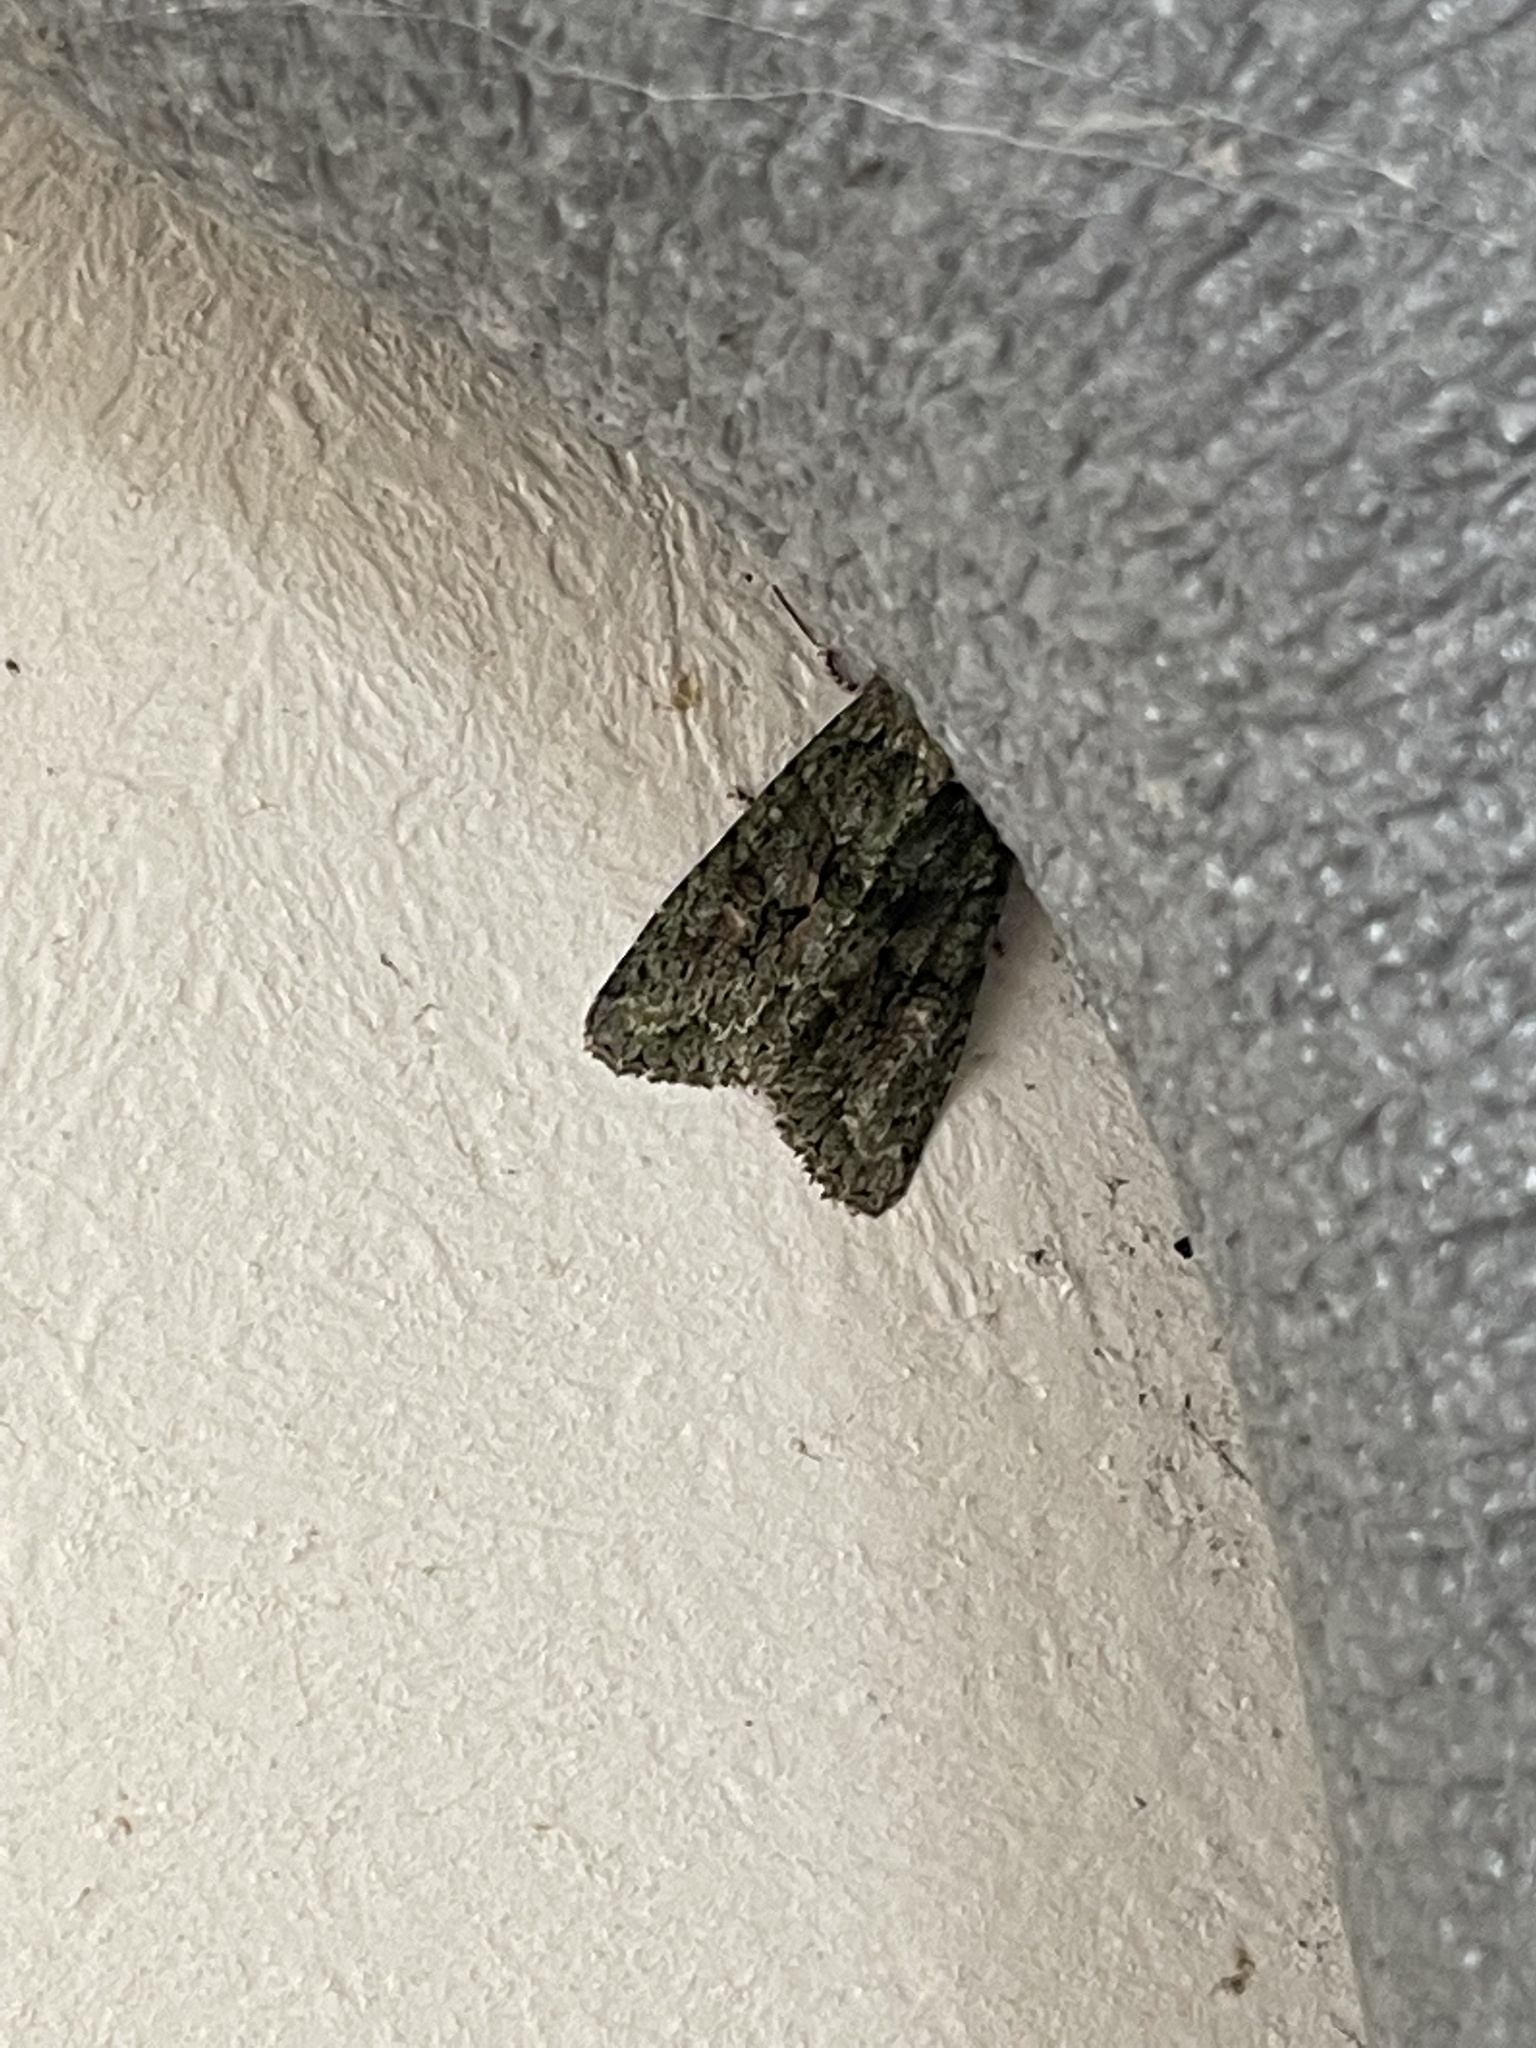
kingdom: Animalia
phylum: Arthropoda
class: Insecta
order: Lepidoptera
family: Noctuidae
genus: Dryobotodes
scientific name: Dryobotodes eremita
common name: Brindled green
